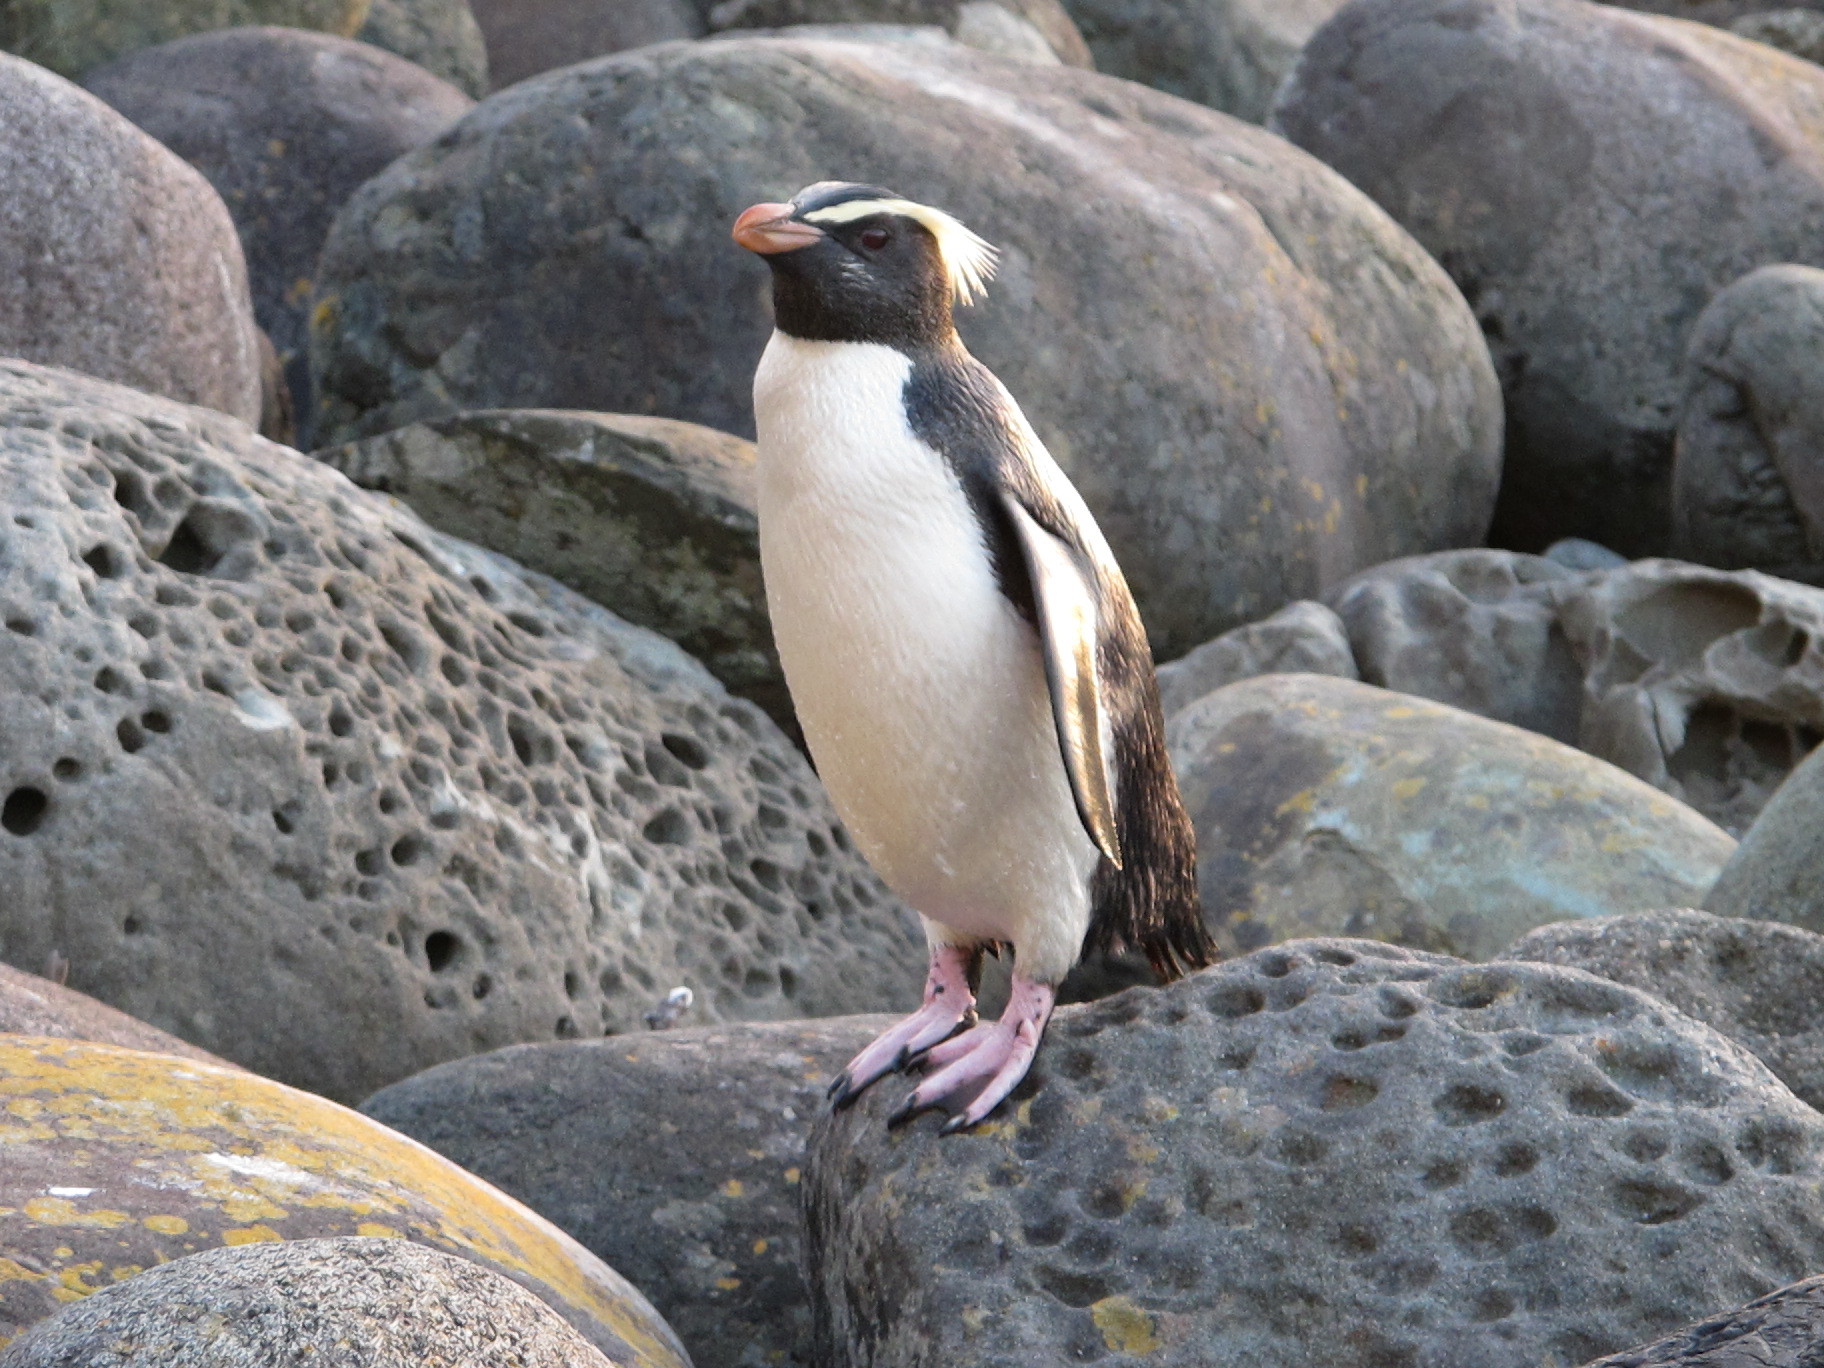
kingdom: Animalia
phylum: Chordata
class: Aves
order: Sphenisciformes
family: Spheniscidae
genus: Eudyptes
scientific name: Eudyptes pachyrhynchus
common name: Fiordland penguin
